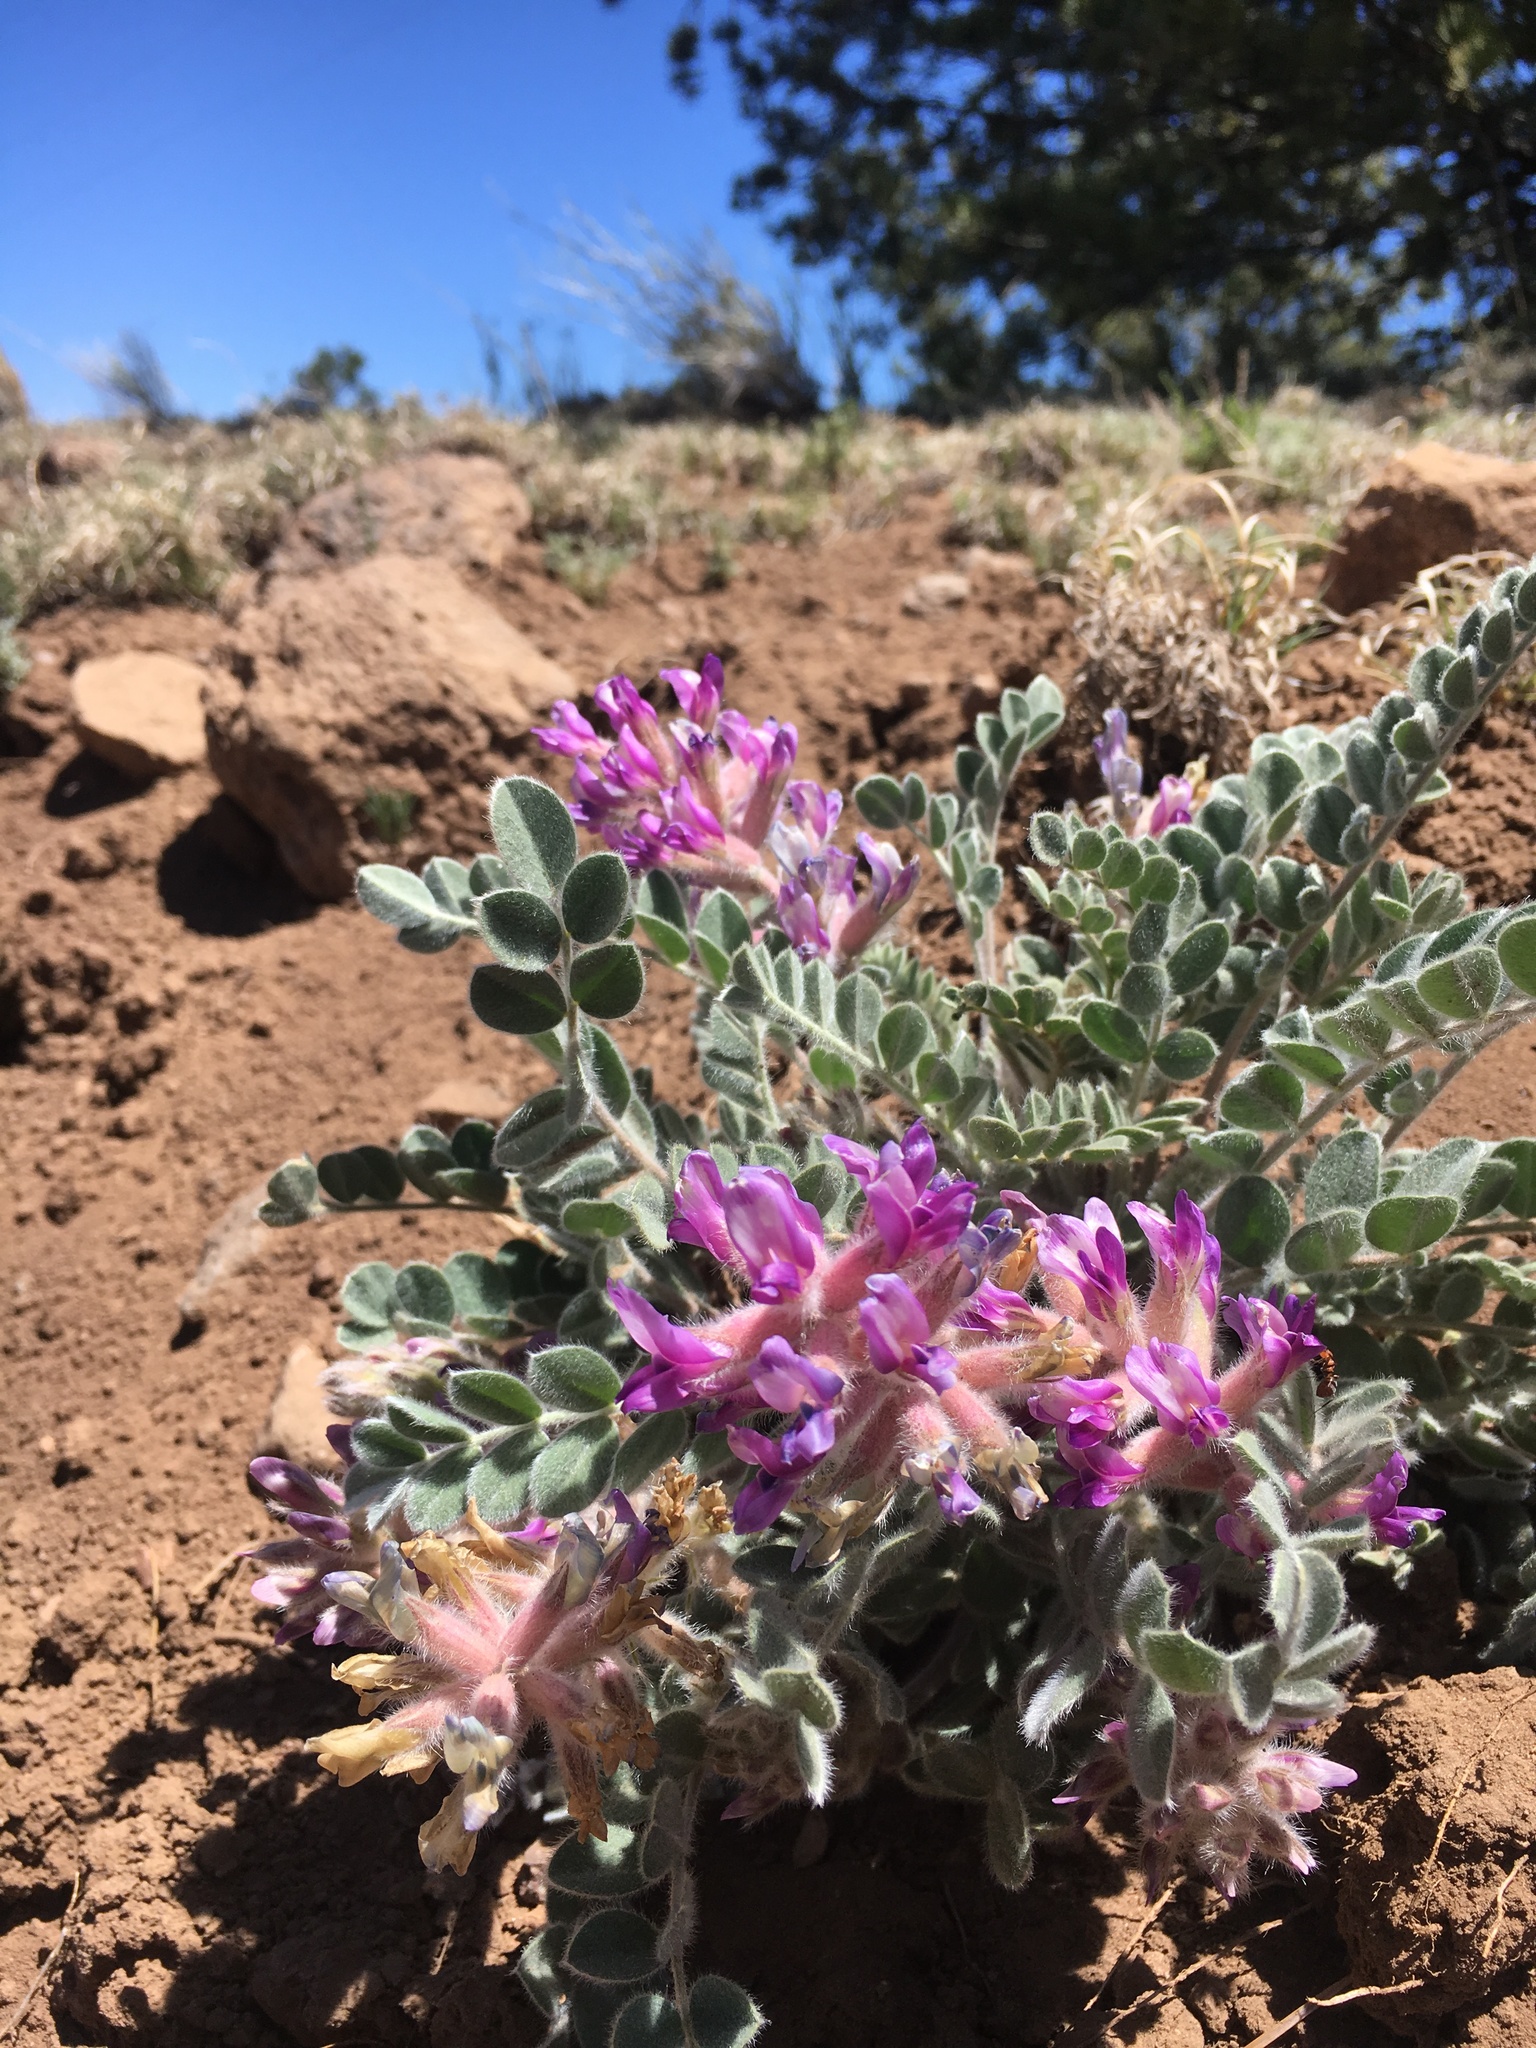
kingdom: Plantae
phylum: Tracheophyta
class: Magnoliopsida
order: Fabales
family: Fabaceae
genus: Astragalus
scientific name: Astragalus mollissimus
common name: Woolly locoweed
